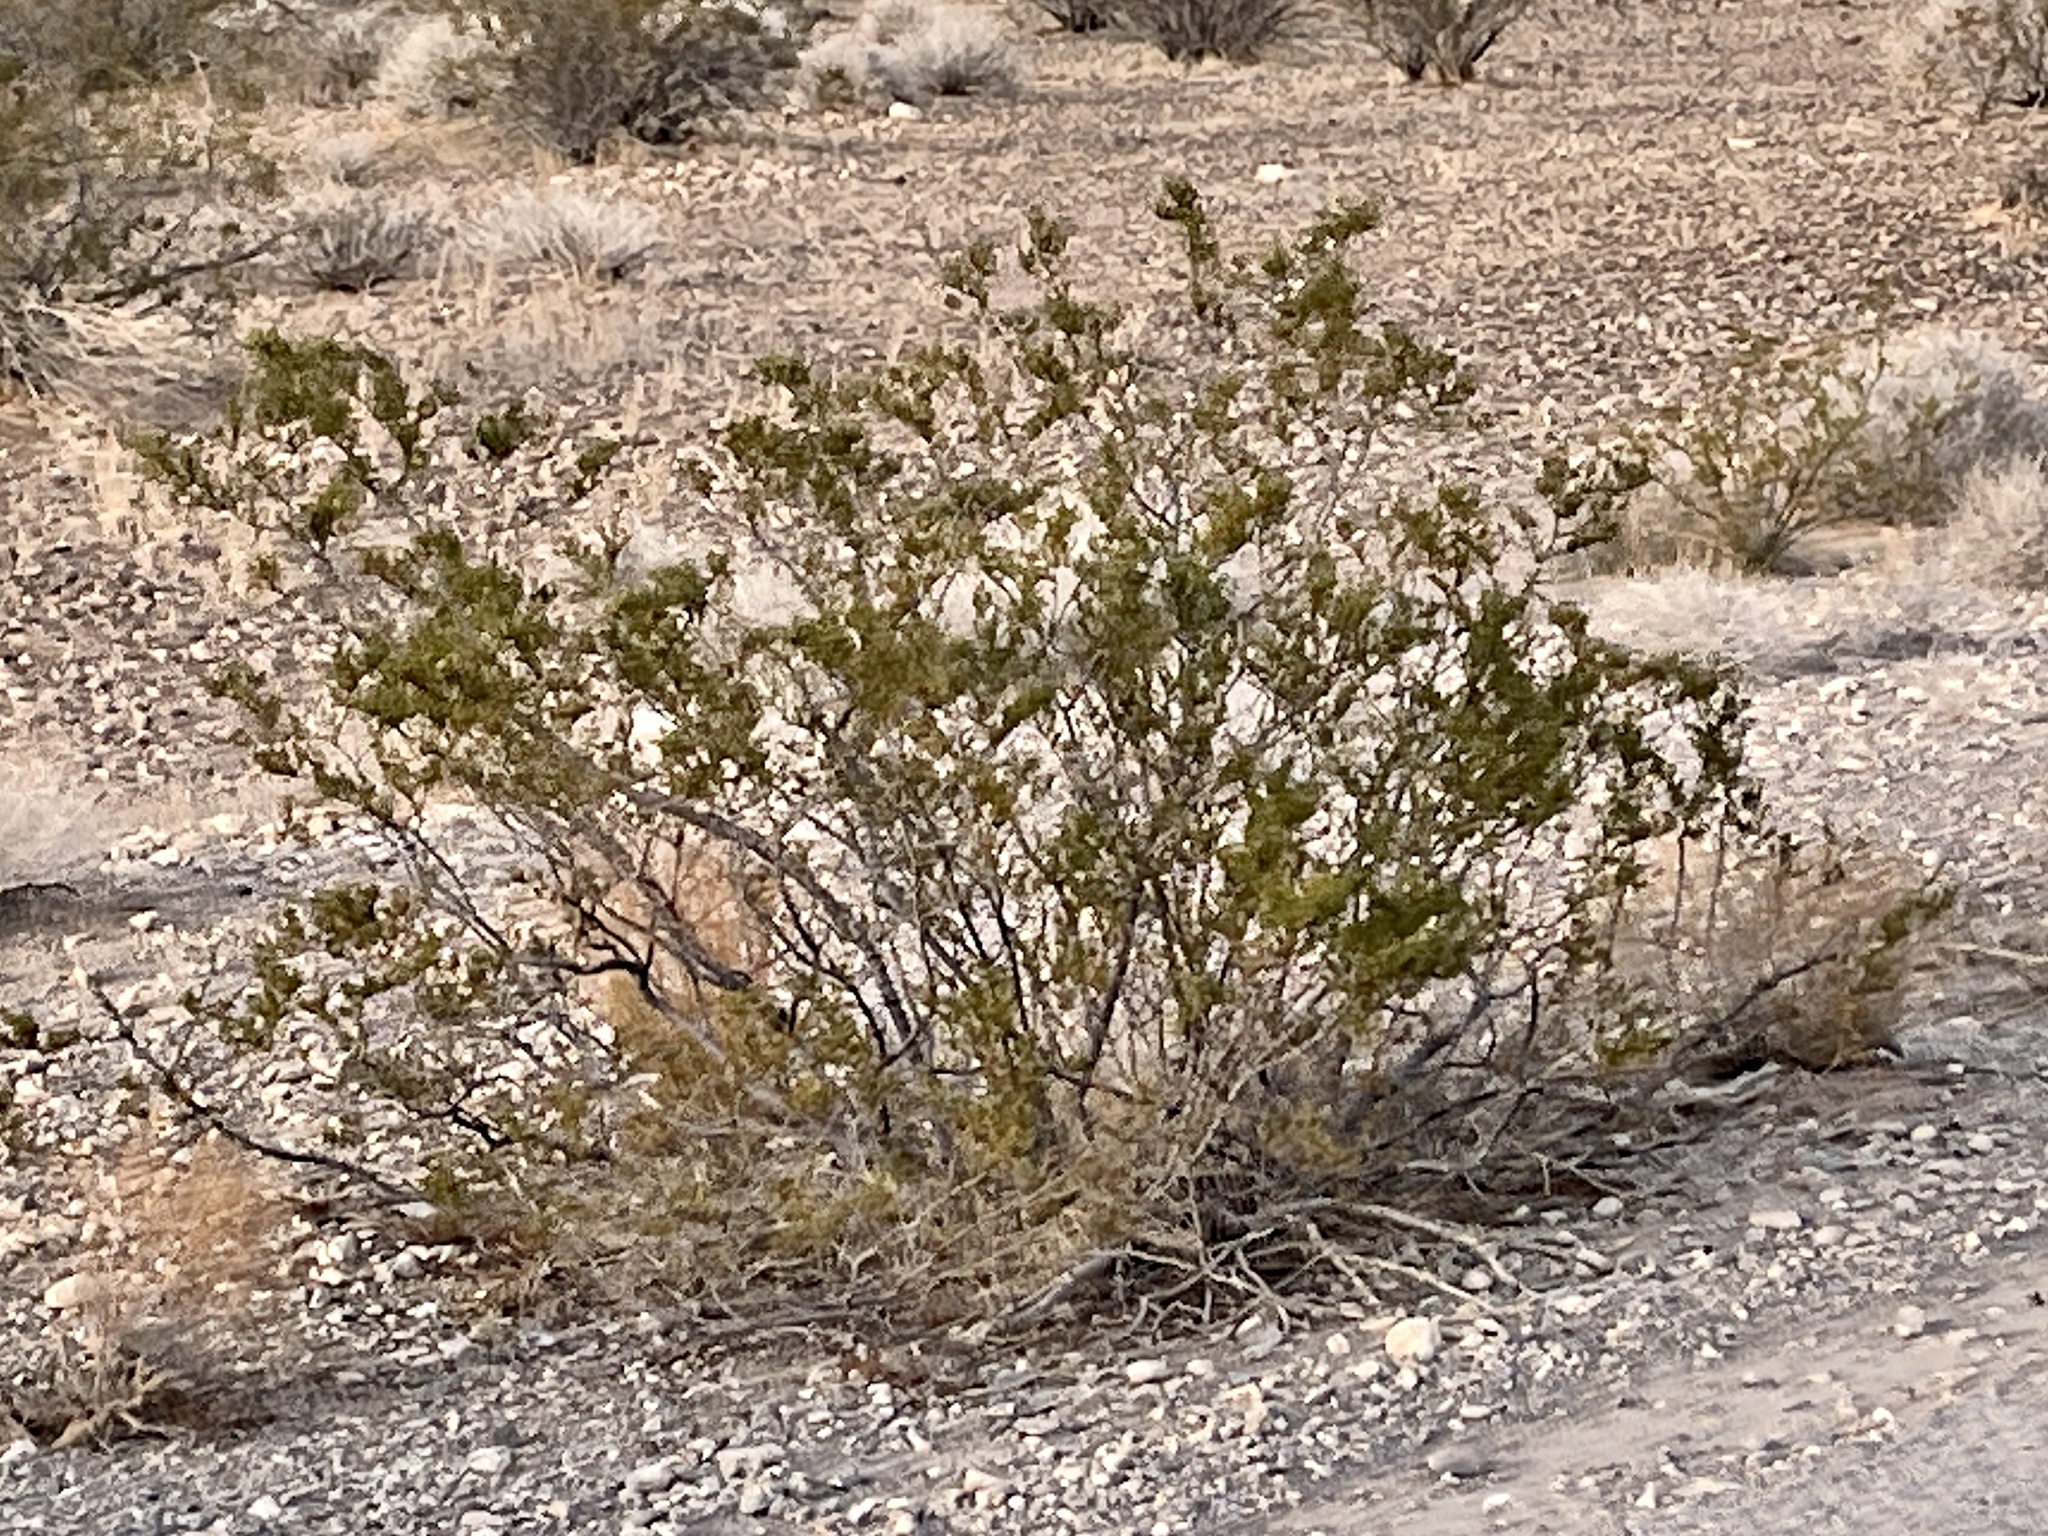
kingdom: Plantae
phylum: Tracheophyta
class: Magnoliopsida
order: Zygophyllales
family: Zygophyllaceae
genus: Larrea
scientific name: Larrea tridentata
